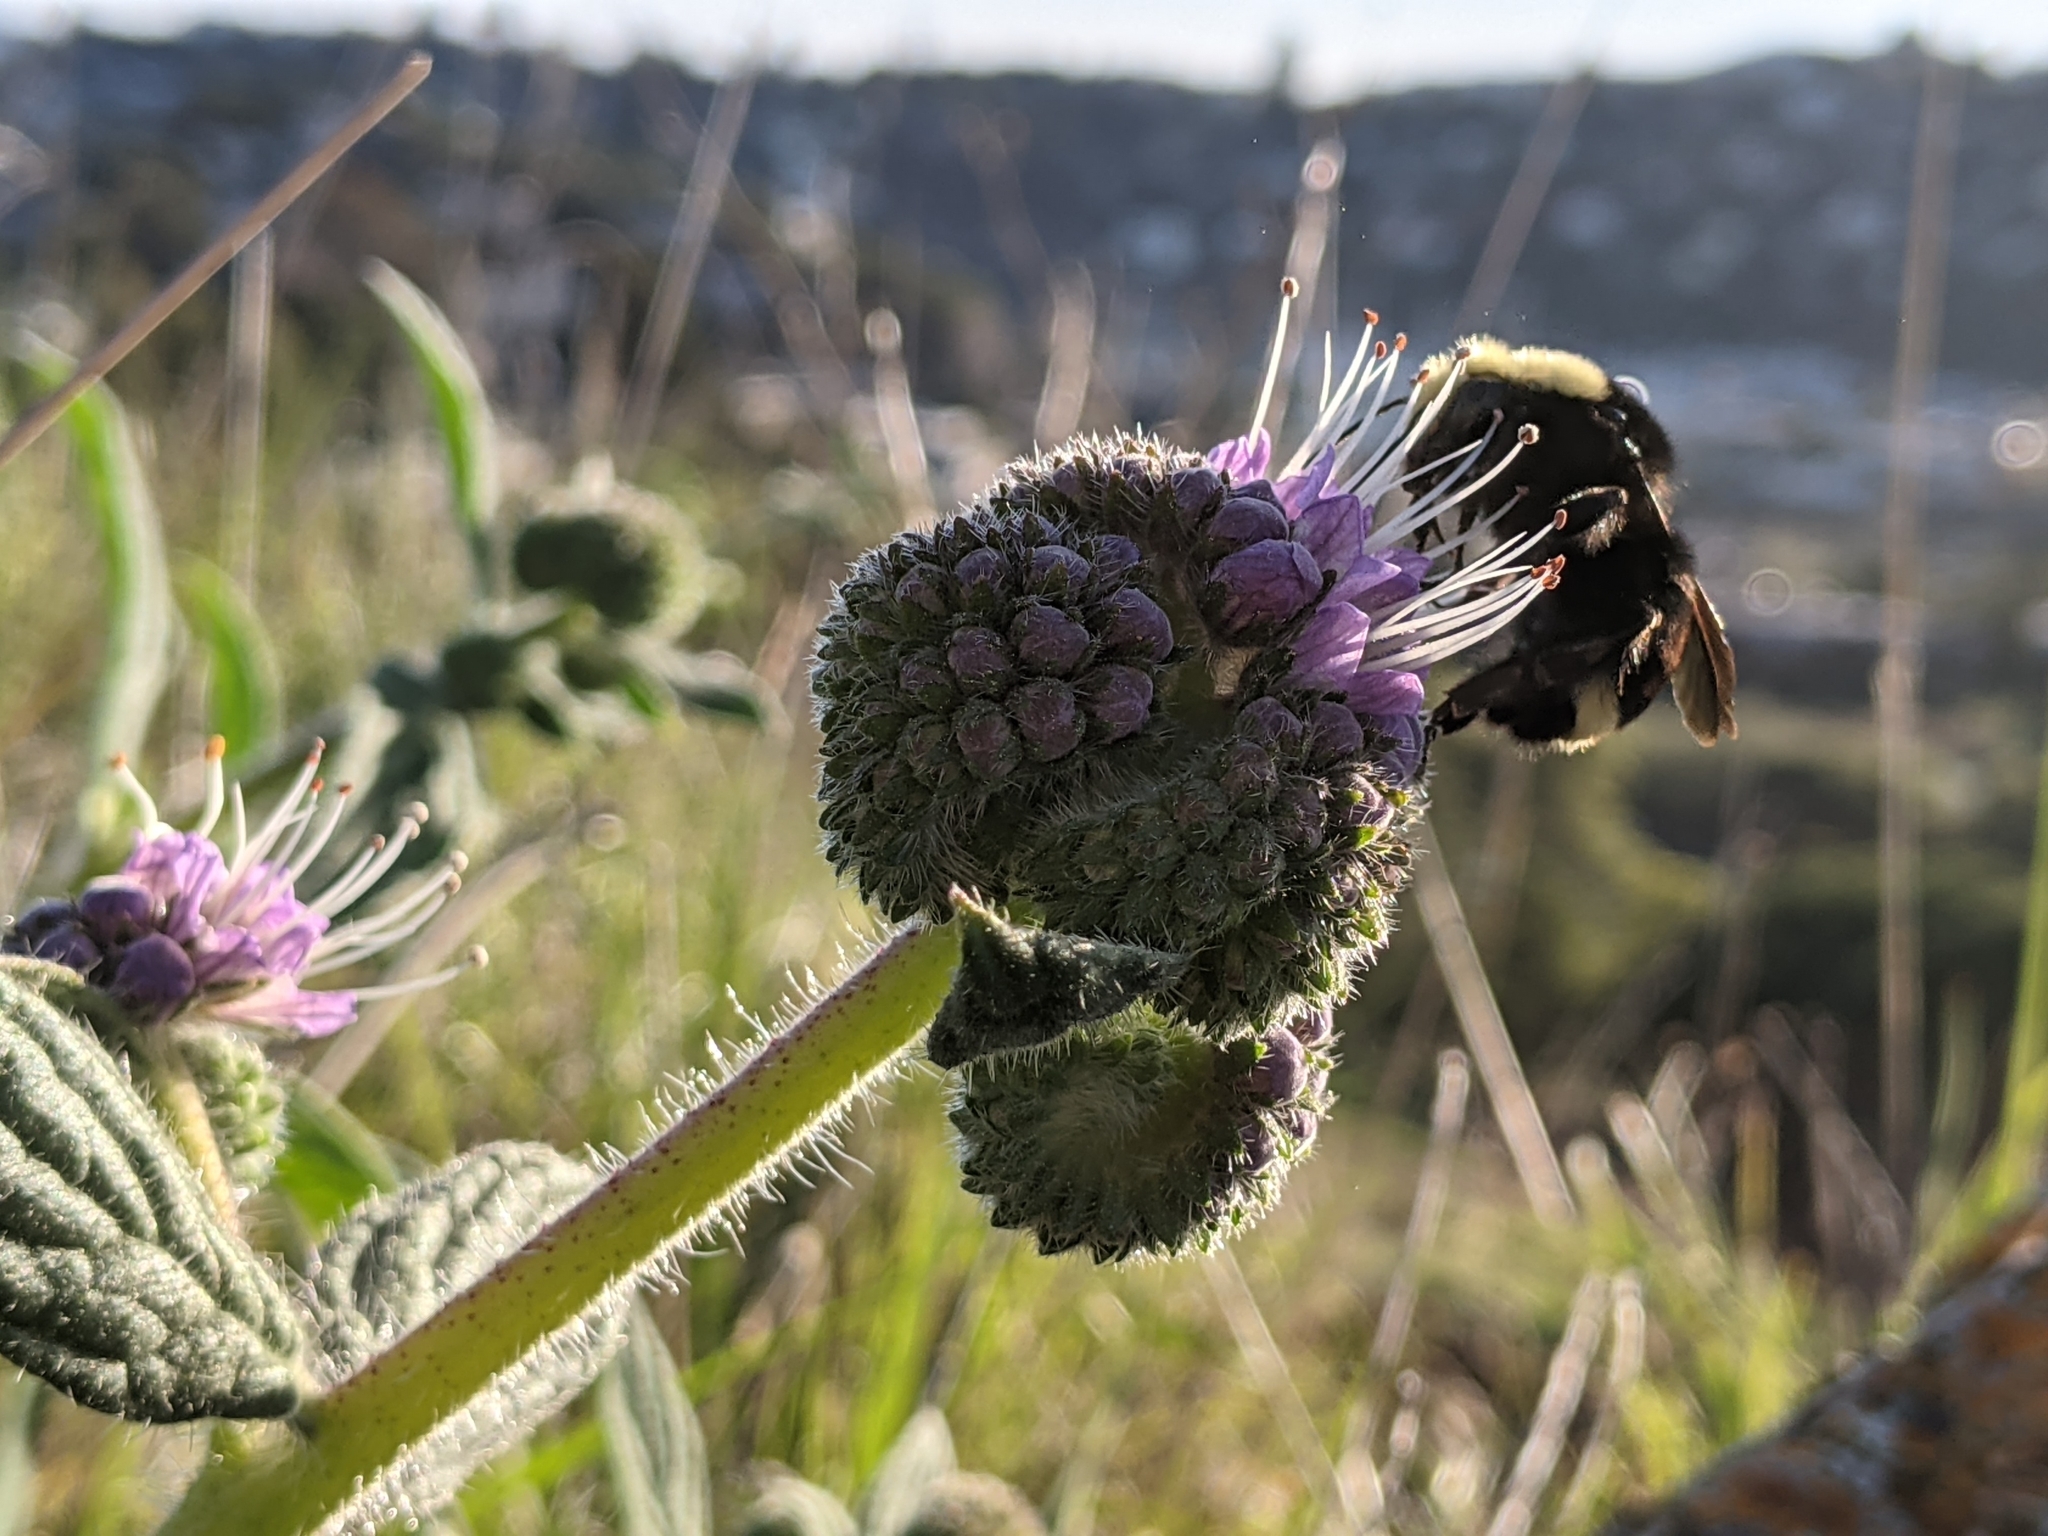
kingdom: Plantae
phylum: Tracheophyta
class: Magnoliopsida
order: Boraginales
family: Hydrophyllaceae
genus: Phacelia
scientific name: Phacelia californica
